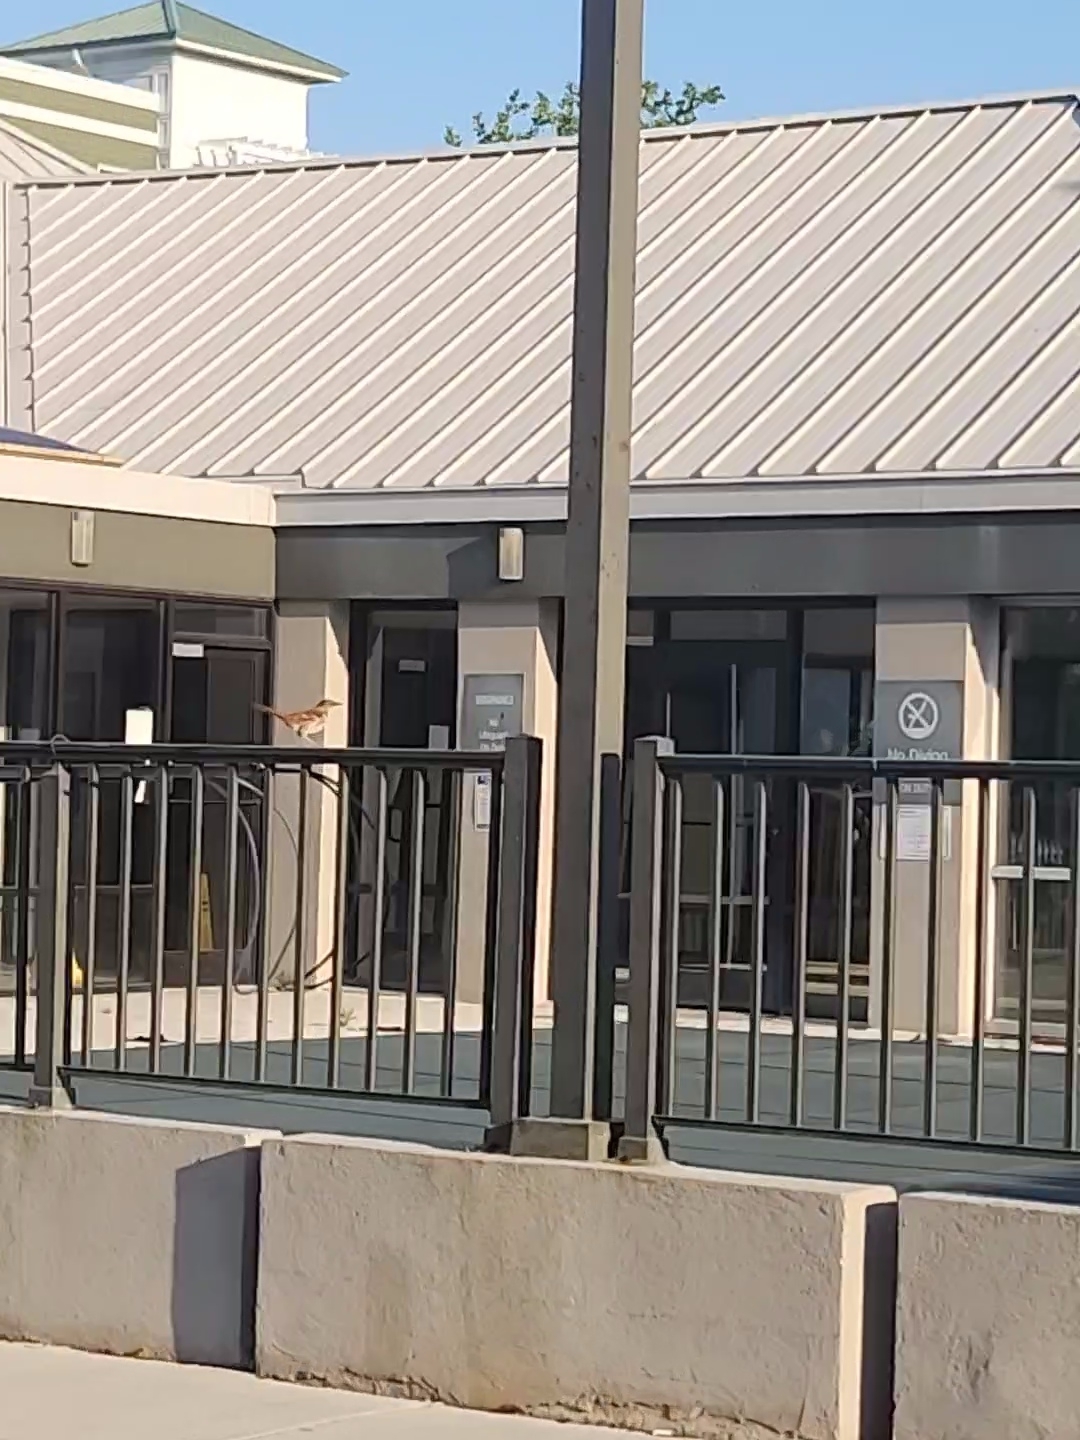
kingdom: Animalia
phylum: Chordata
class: Aves
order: Passeriformes
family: Mimidae
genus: Toxostoma
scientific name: Toxostoma rufum
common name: Brown thrasher
